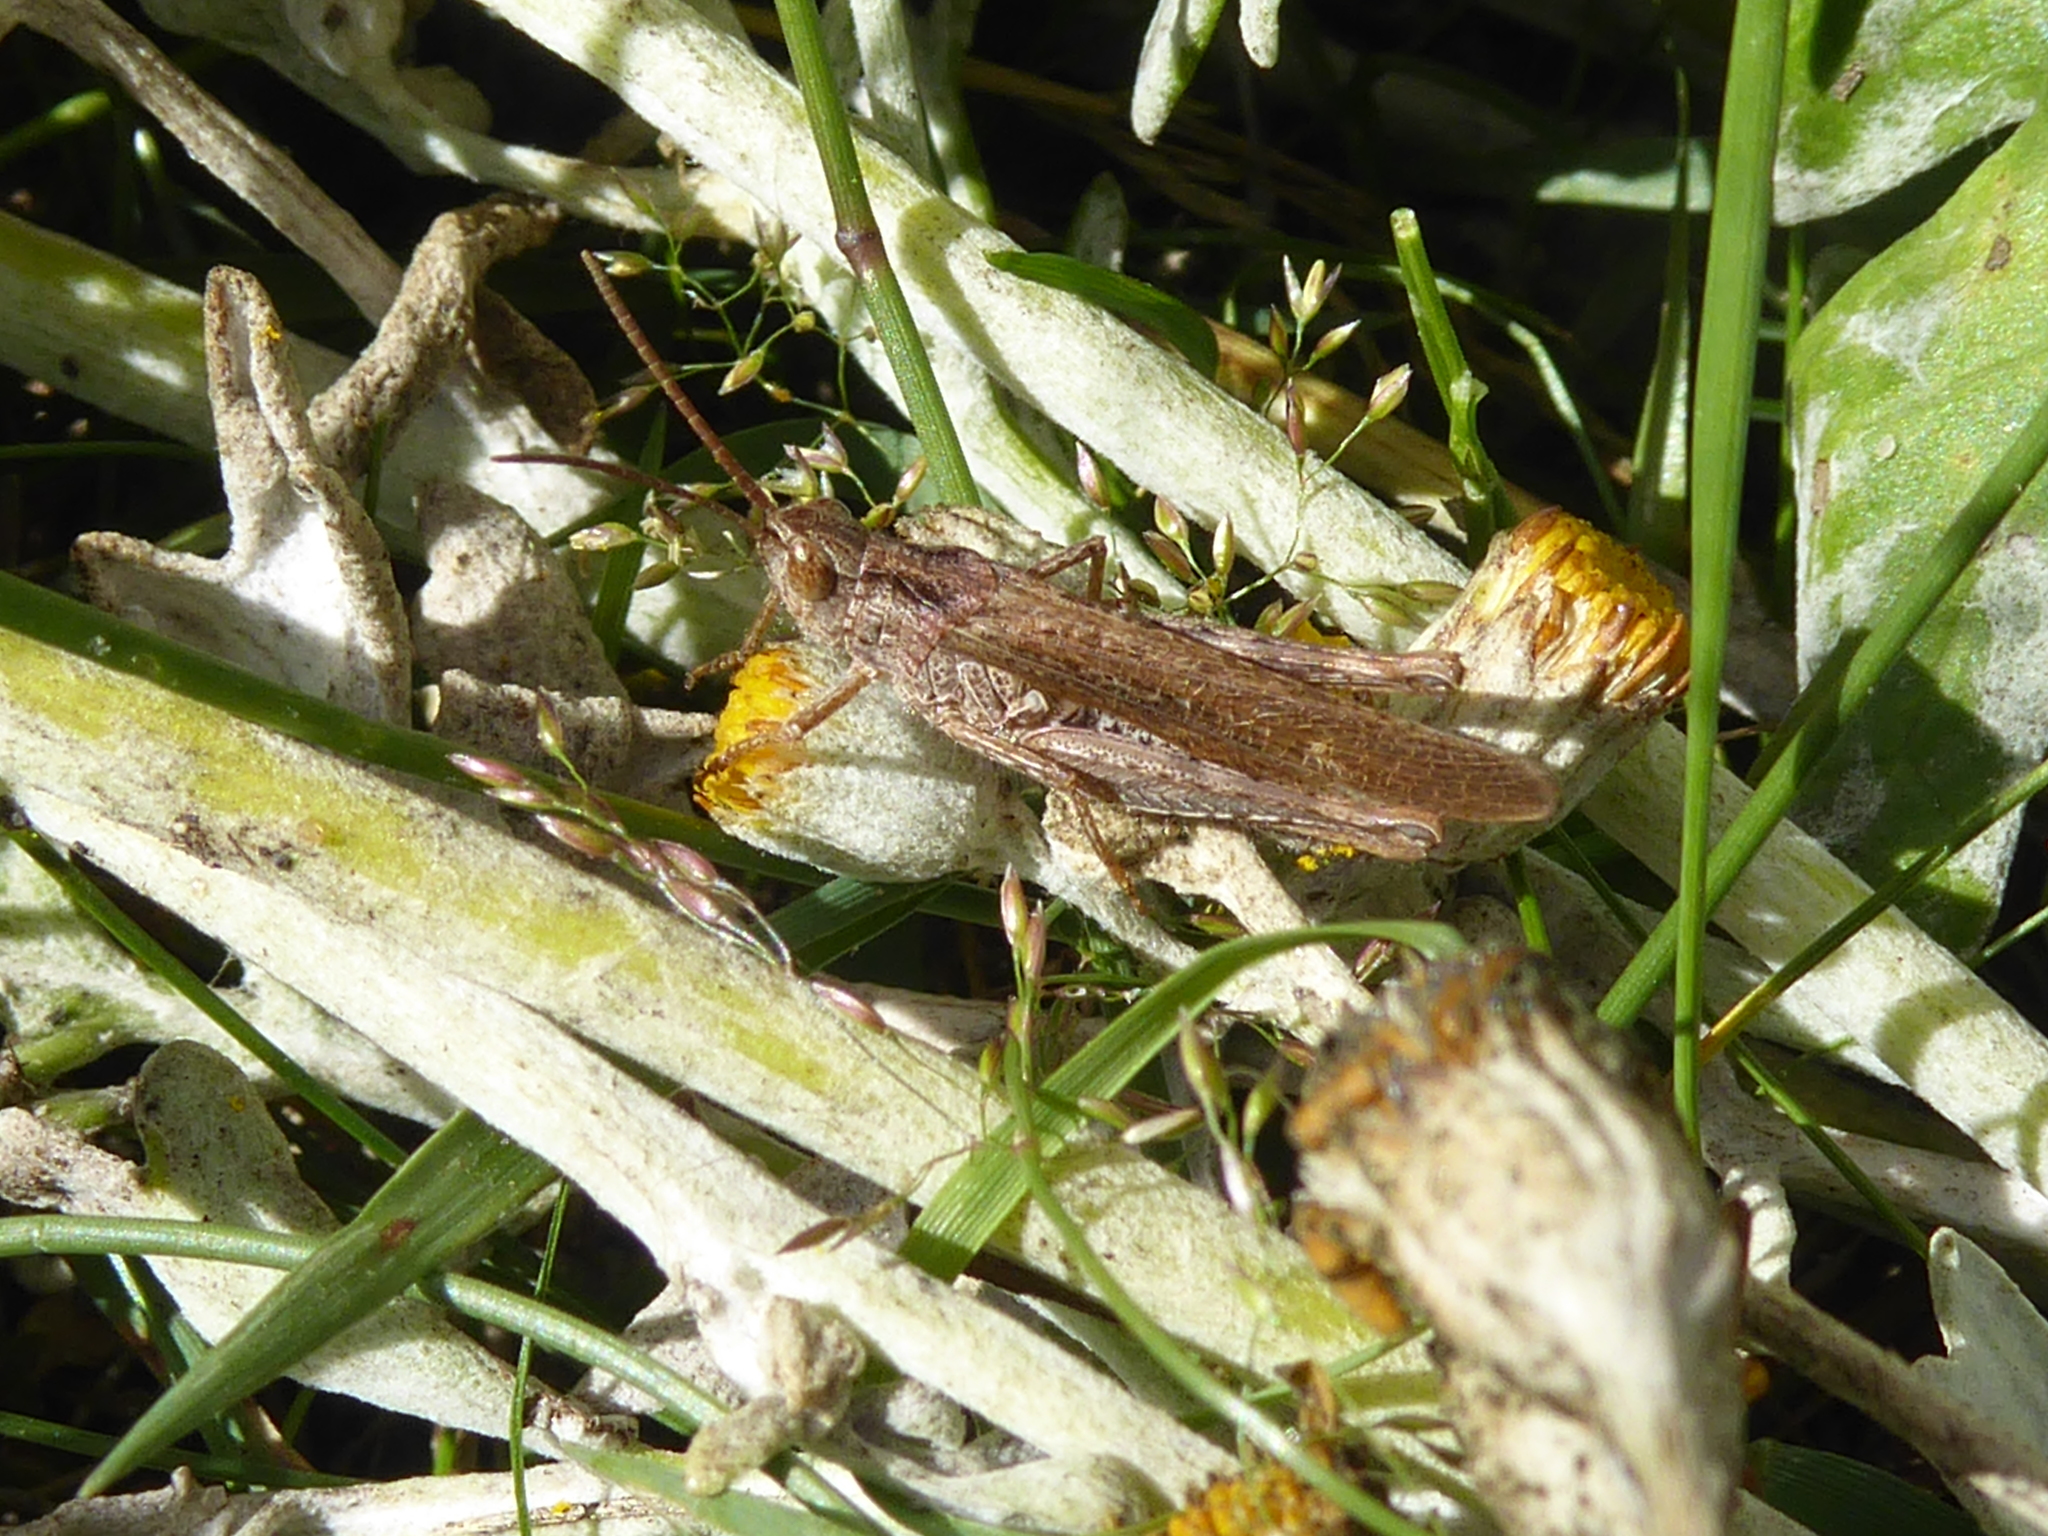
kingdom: Animalia
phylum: Arthropoda
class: Insecta
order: Orthoptera
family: Acrididae
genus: Chorthippus
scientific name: Chorthippus brunneus
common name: Field grasshopper
